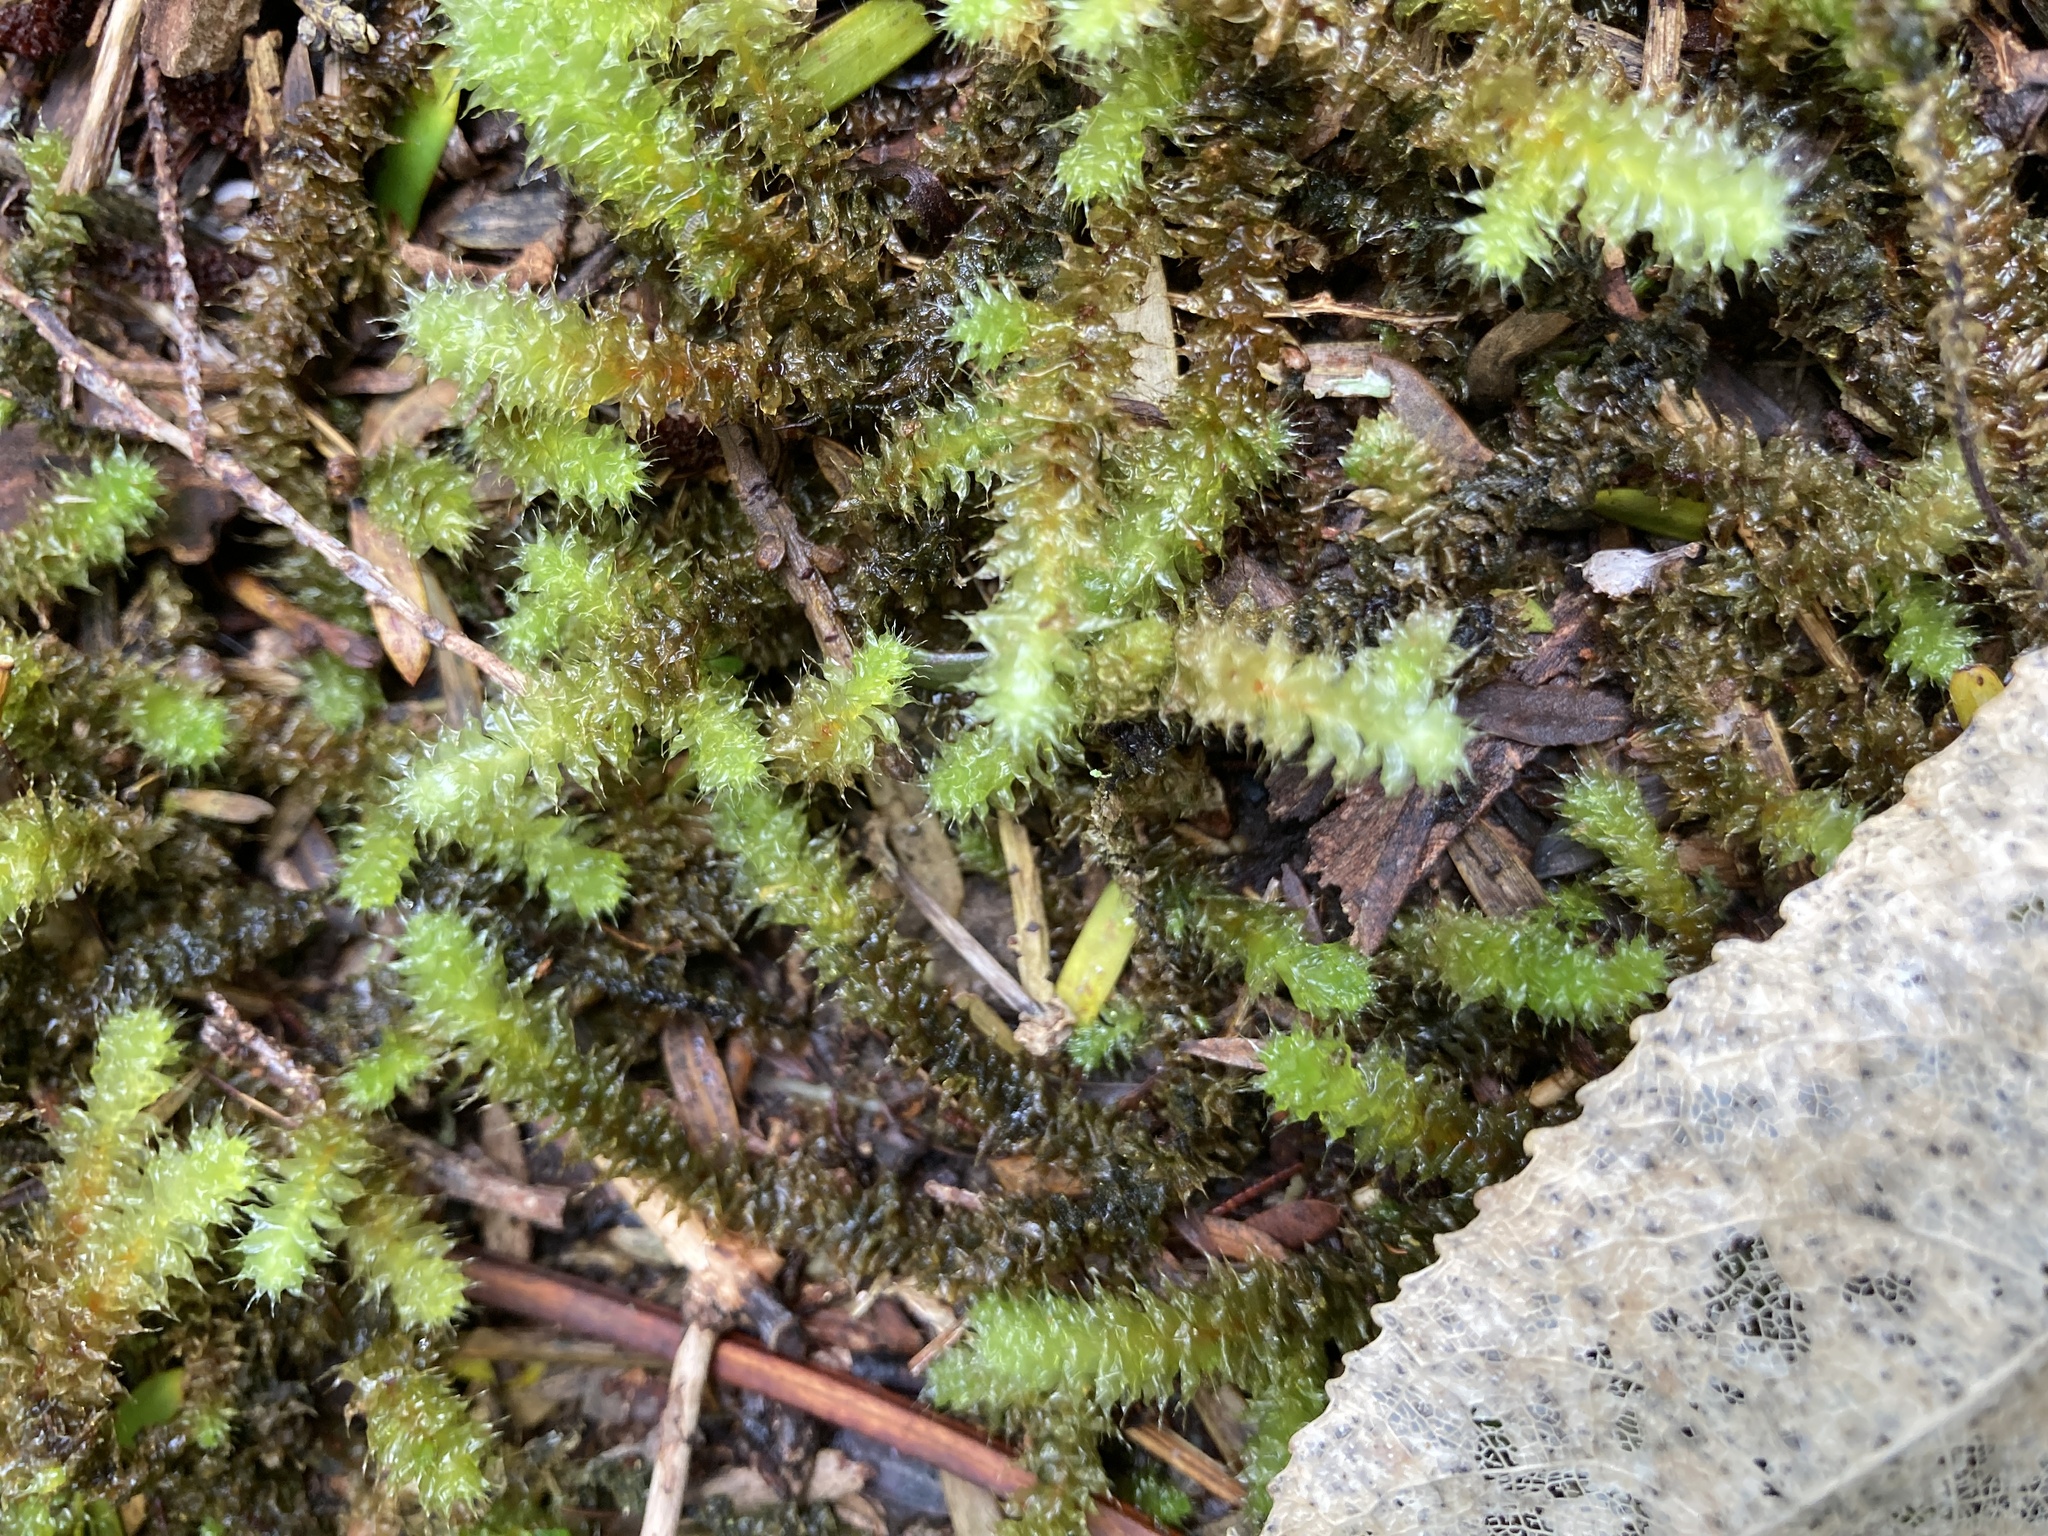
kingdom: Plantae
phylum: Bryophyta
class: Bryopsida
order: Ptychomniales
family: Ptychomniaceae
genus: Ptychomnion
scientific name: Ptychomnion aciculare
